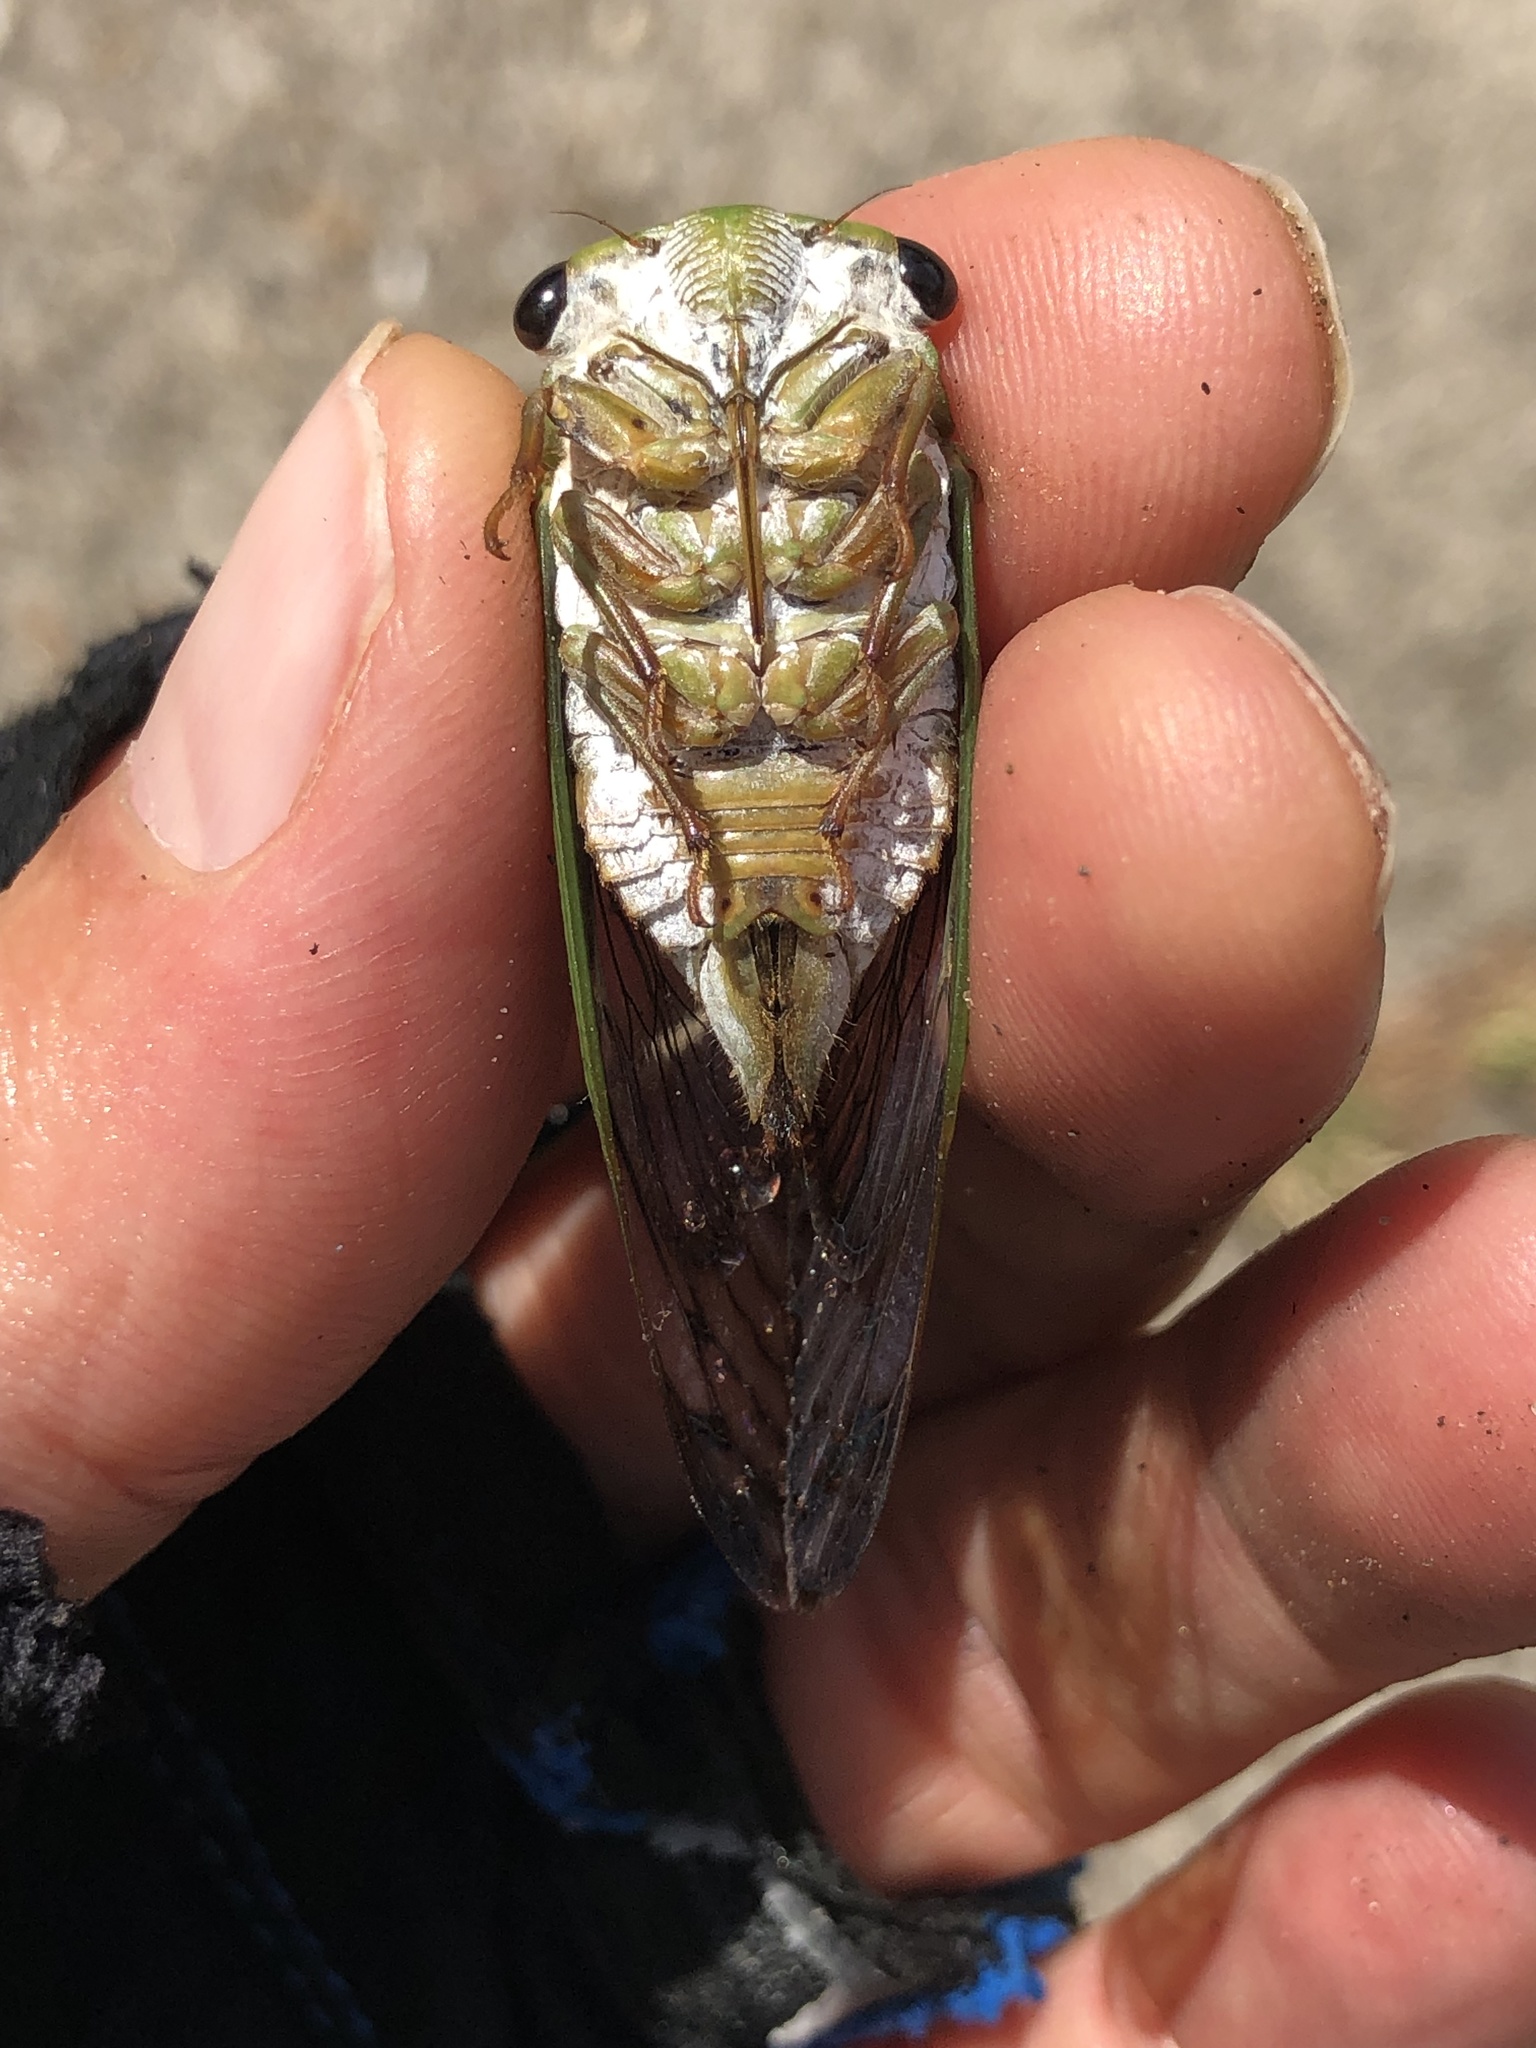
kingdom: Animalia
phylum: Arthropoda
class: Insecta
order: Hemiptera
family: Cicadidae
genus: Neotibicen
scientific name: Neotibicen superbus
